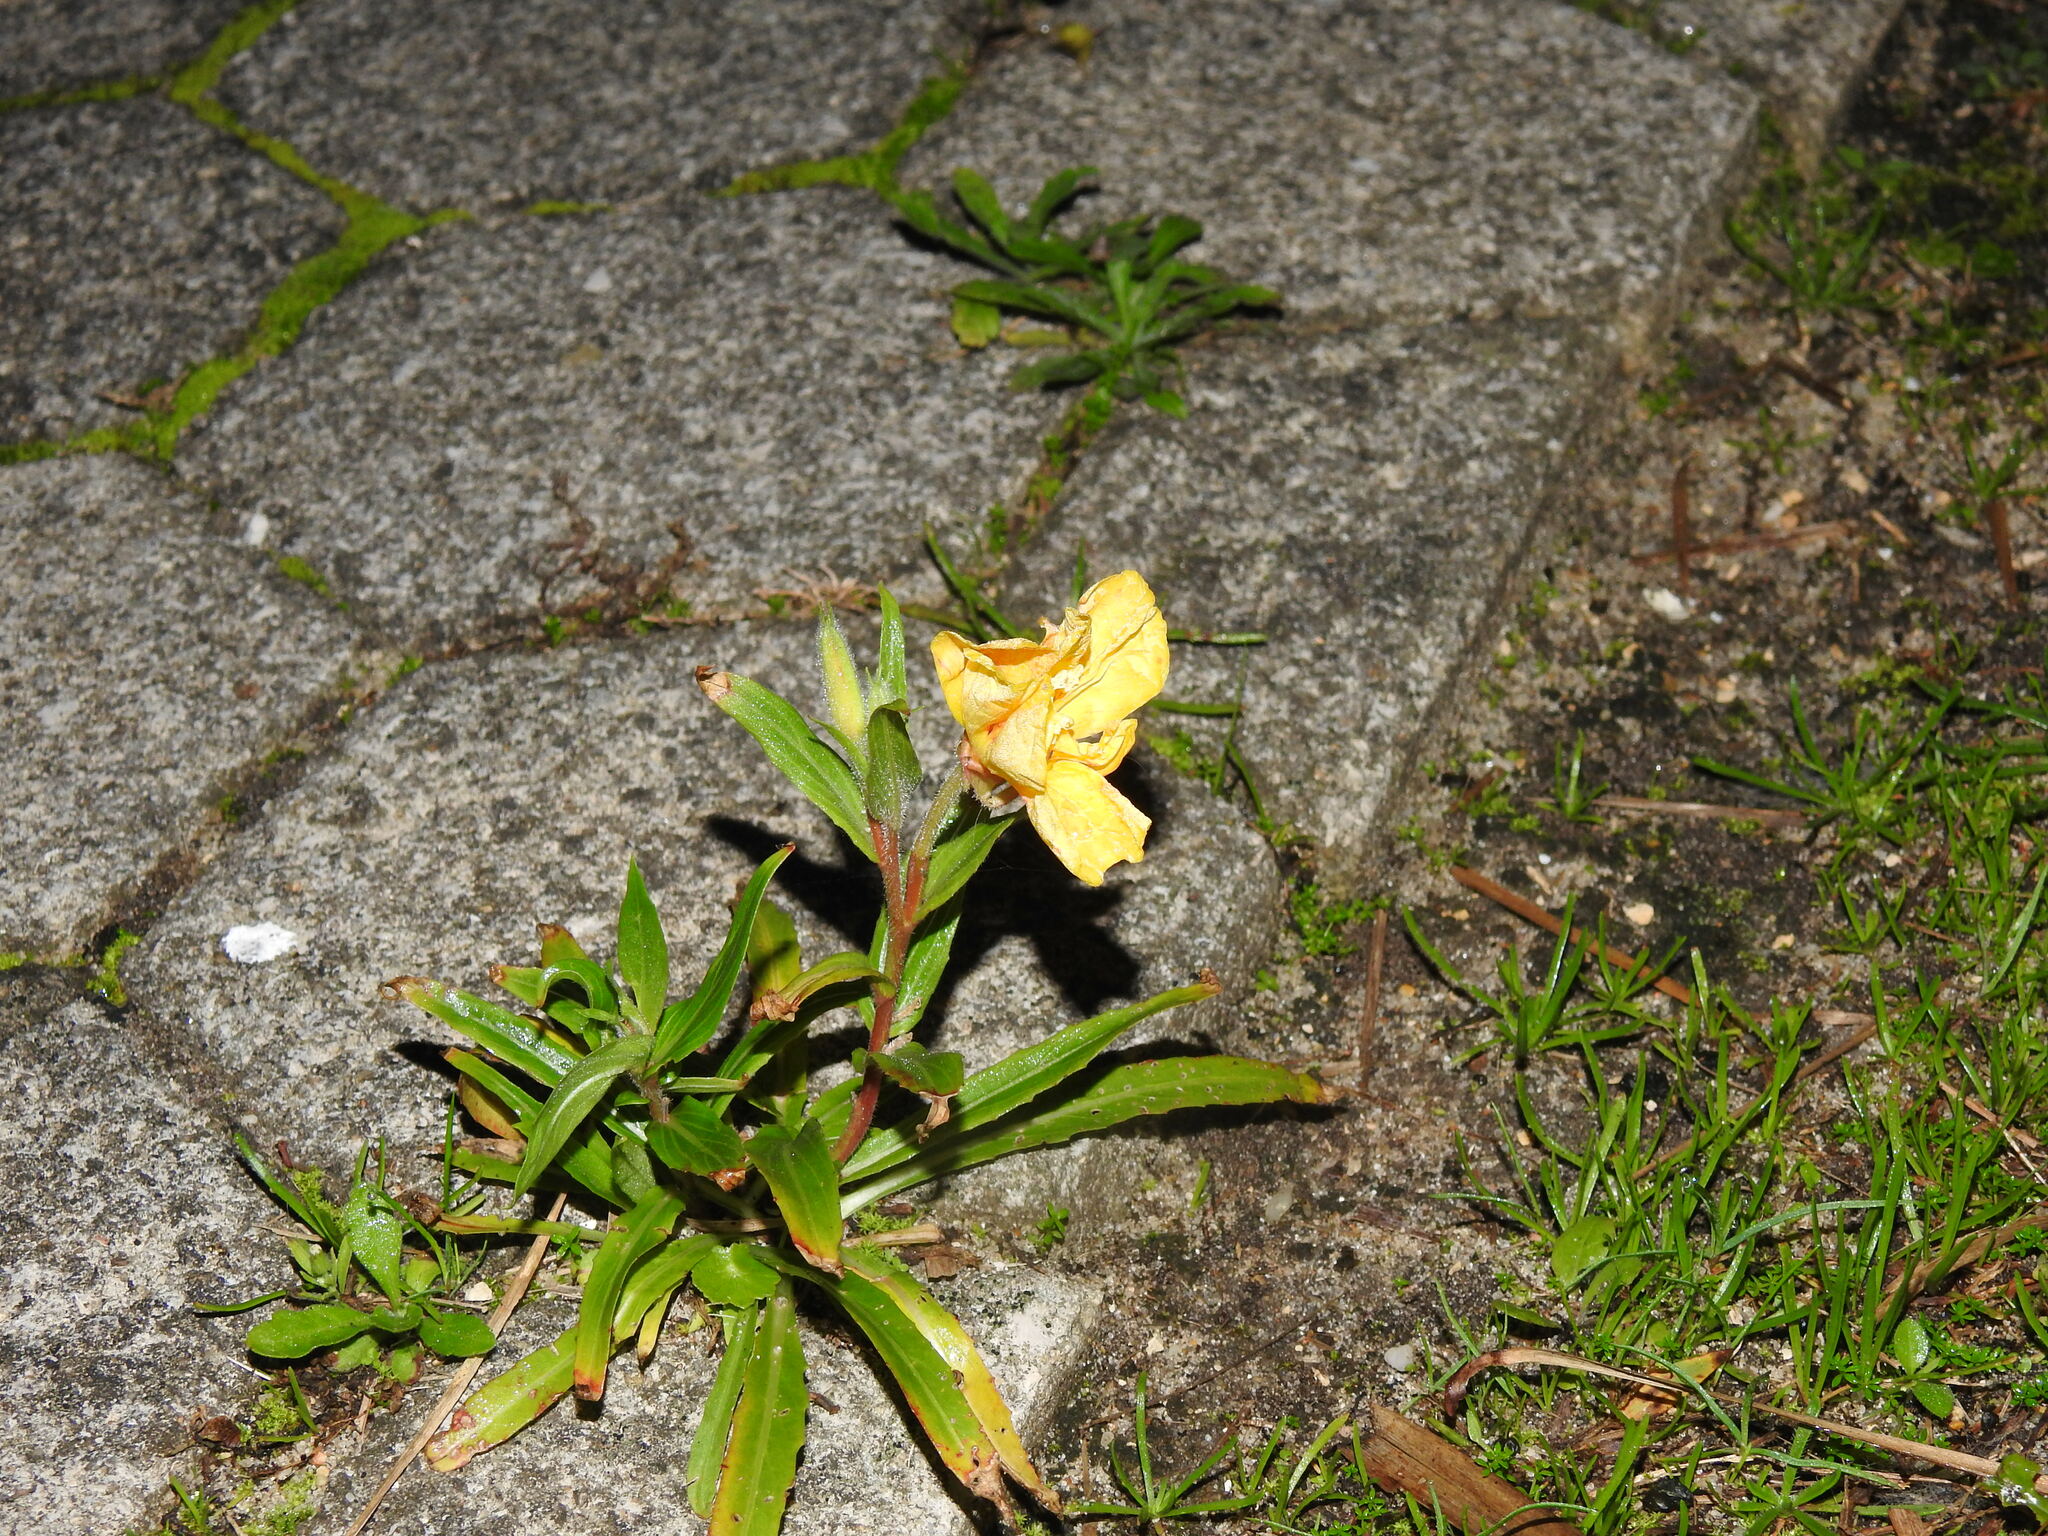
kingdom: Plantae
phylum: Tracheophyta
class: Magnoliopsida
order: Myrtales
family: Onagraceae
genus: Oenothera
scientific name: Oenothera stricta
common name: Fragrant evening-primrose
